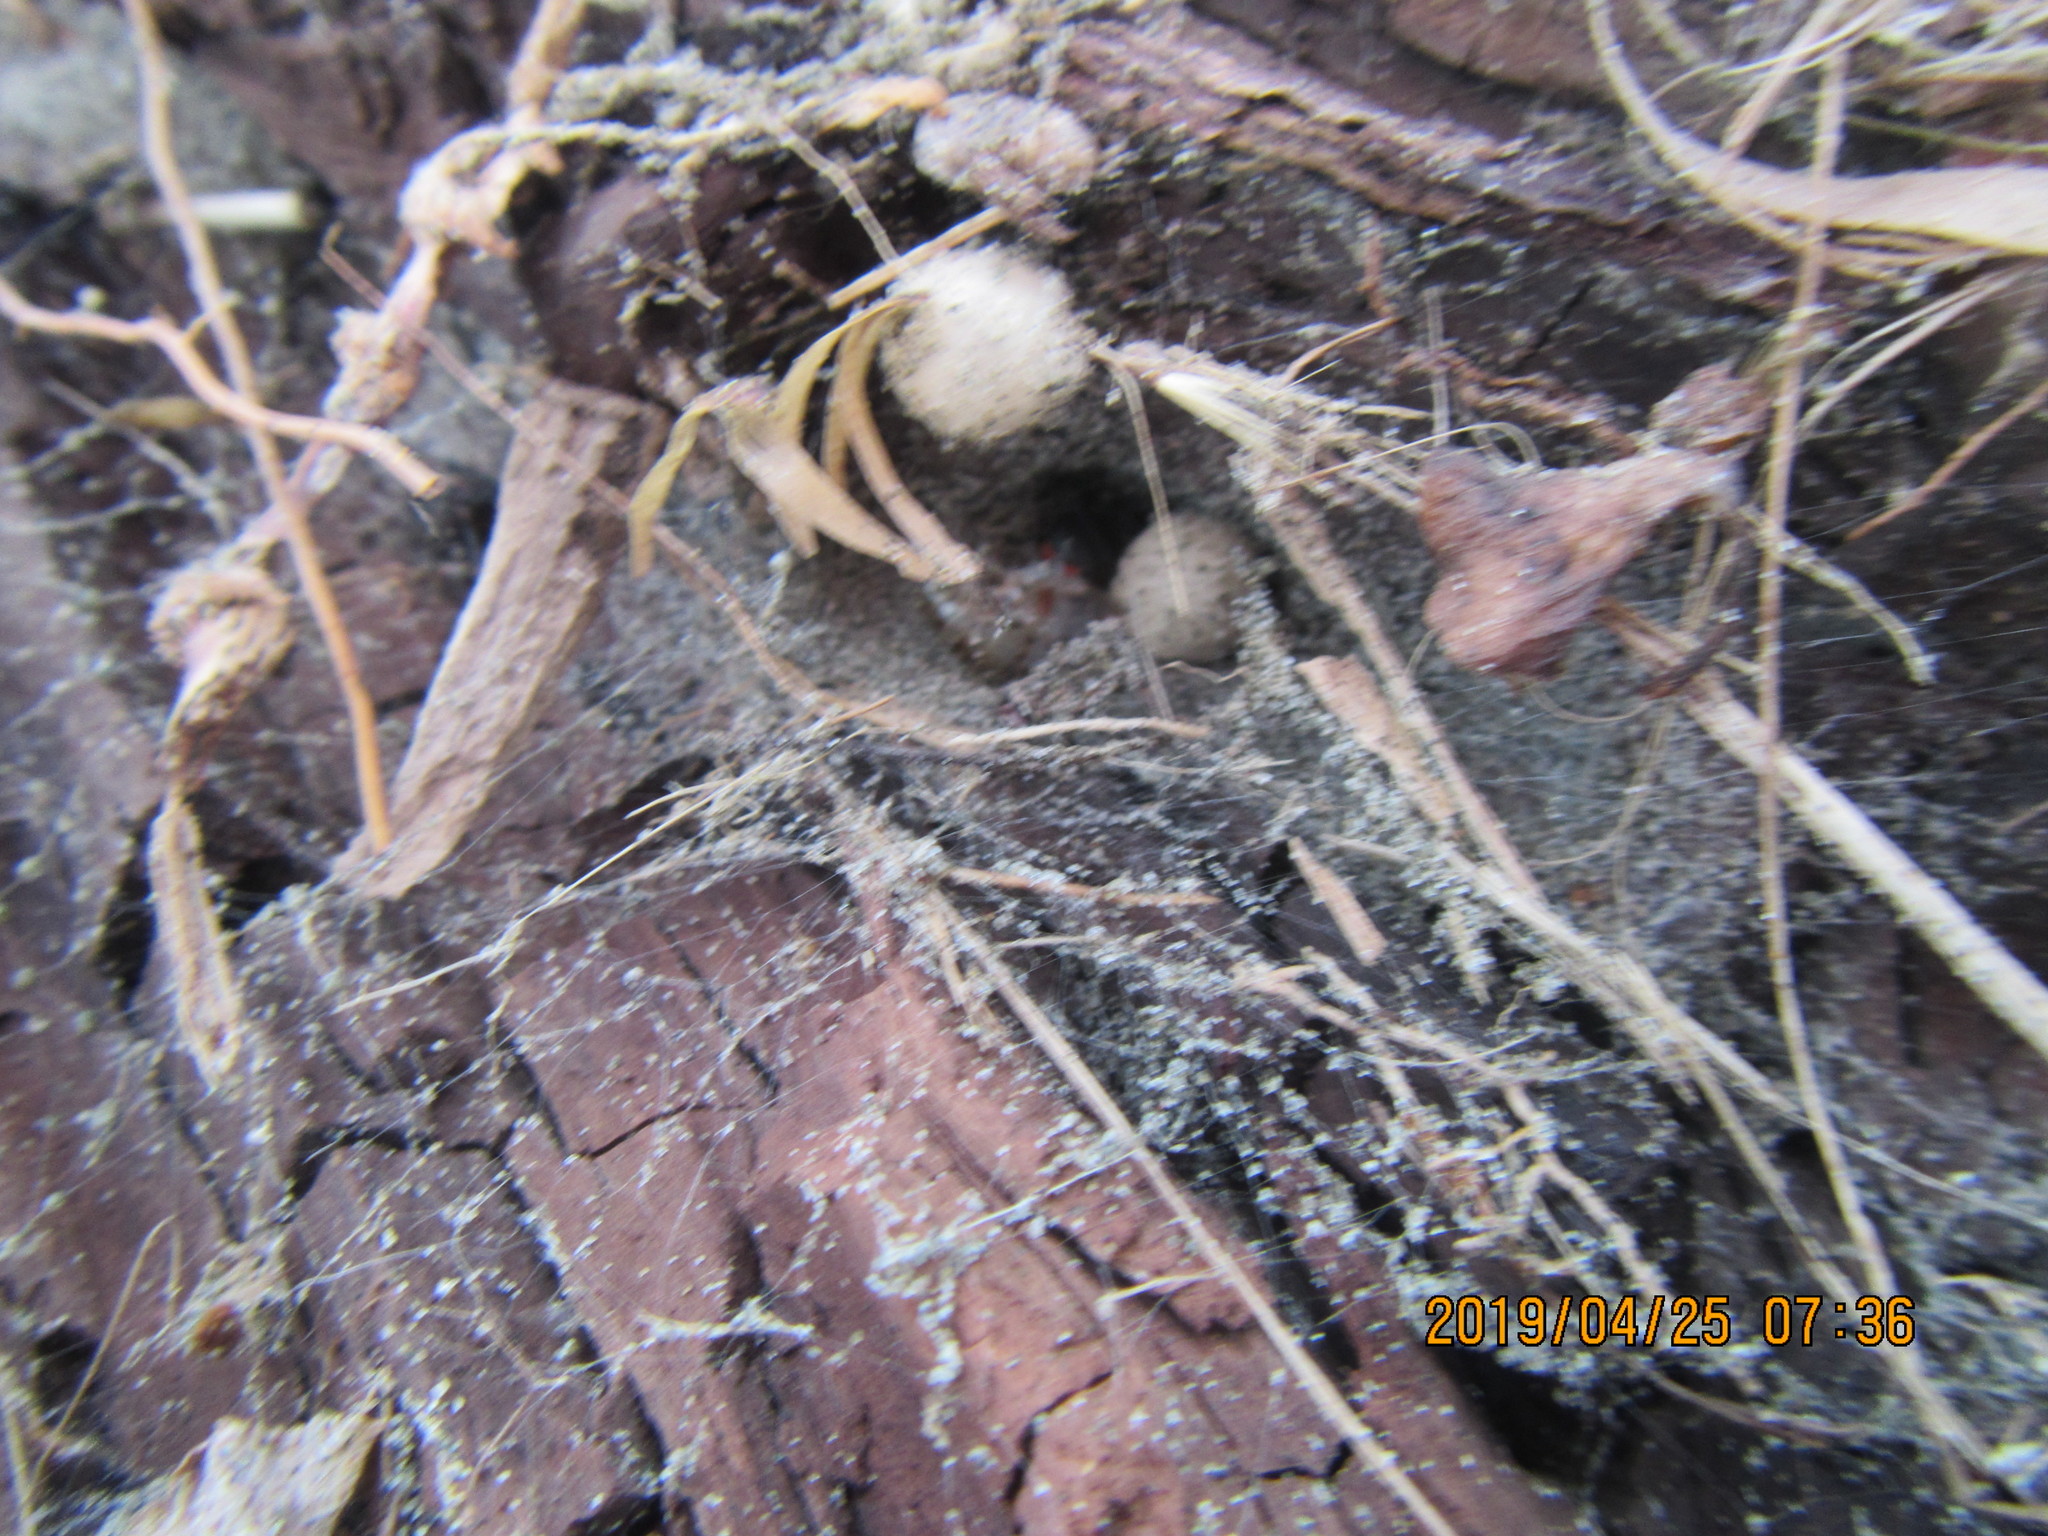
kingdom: Animalia
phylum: Arthropoda
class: Arachnida
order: Araneae
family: Theridiidae
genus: Latrodectus
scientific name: Latrodectus katipo
